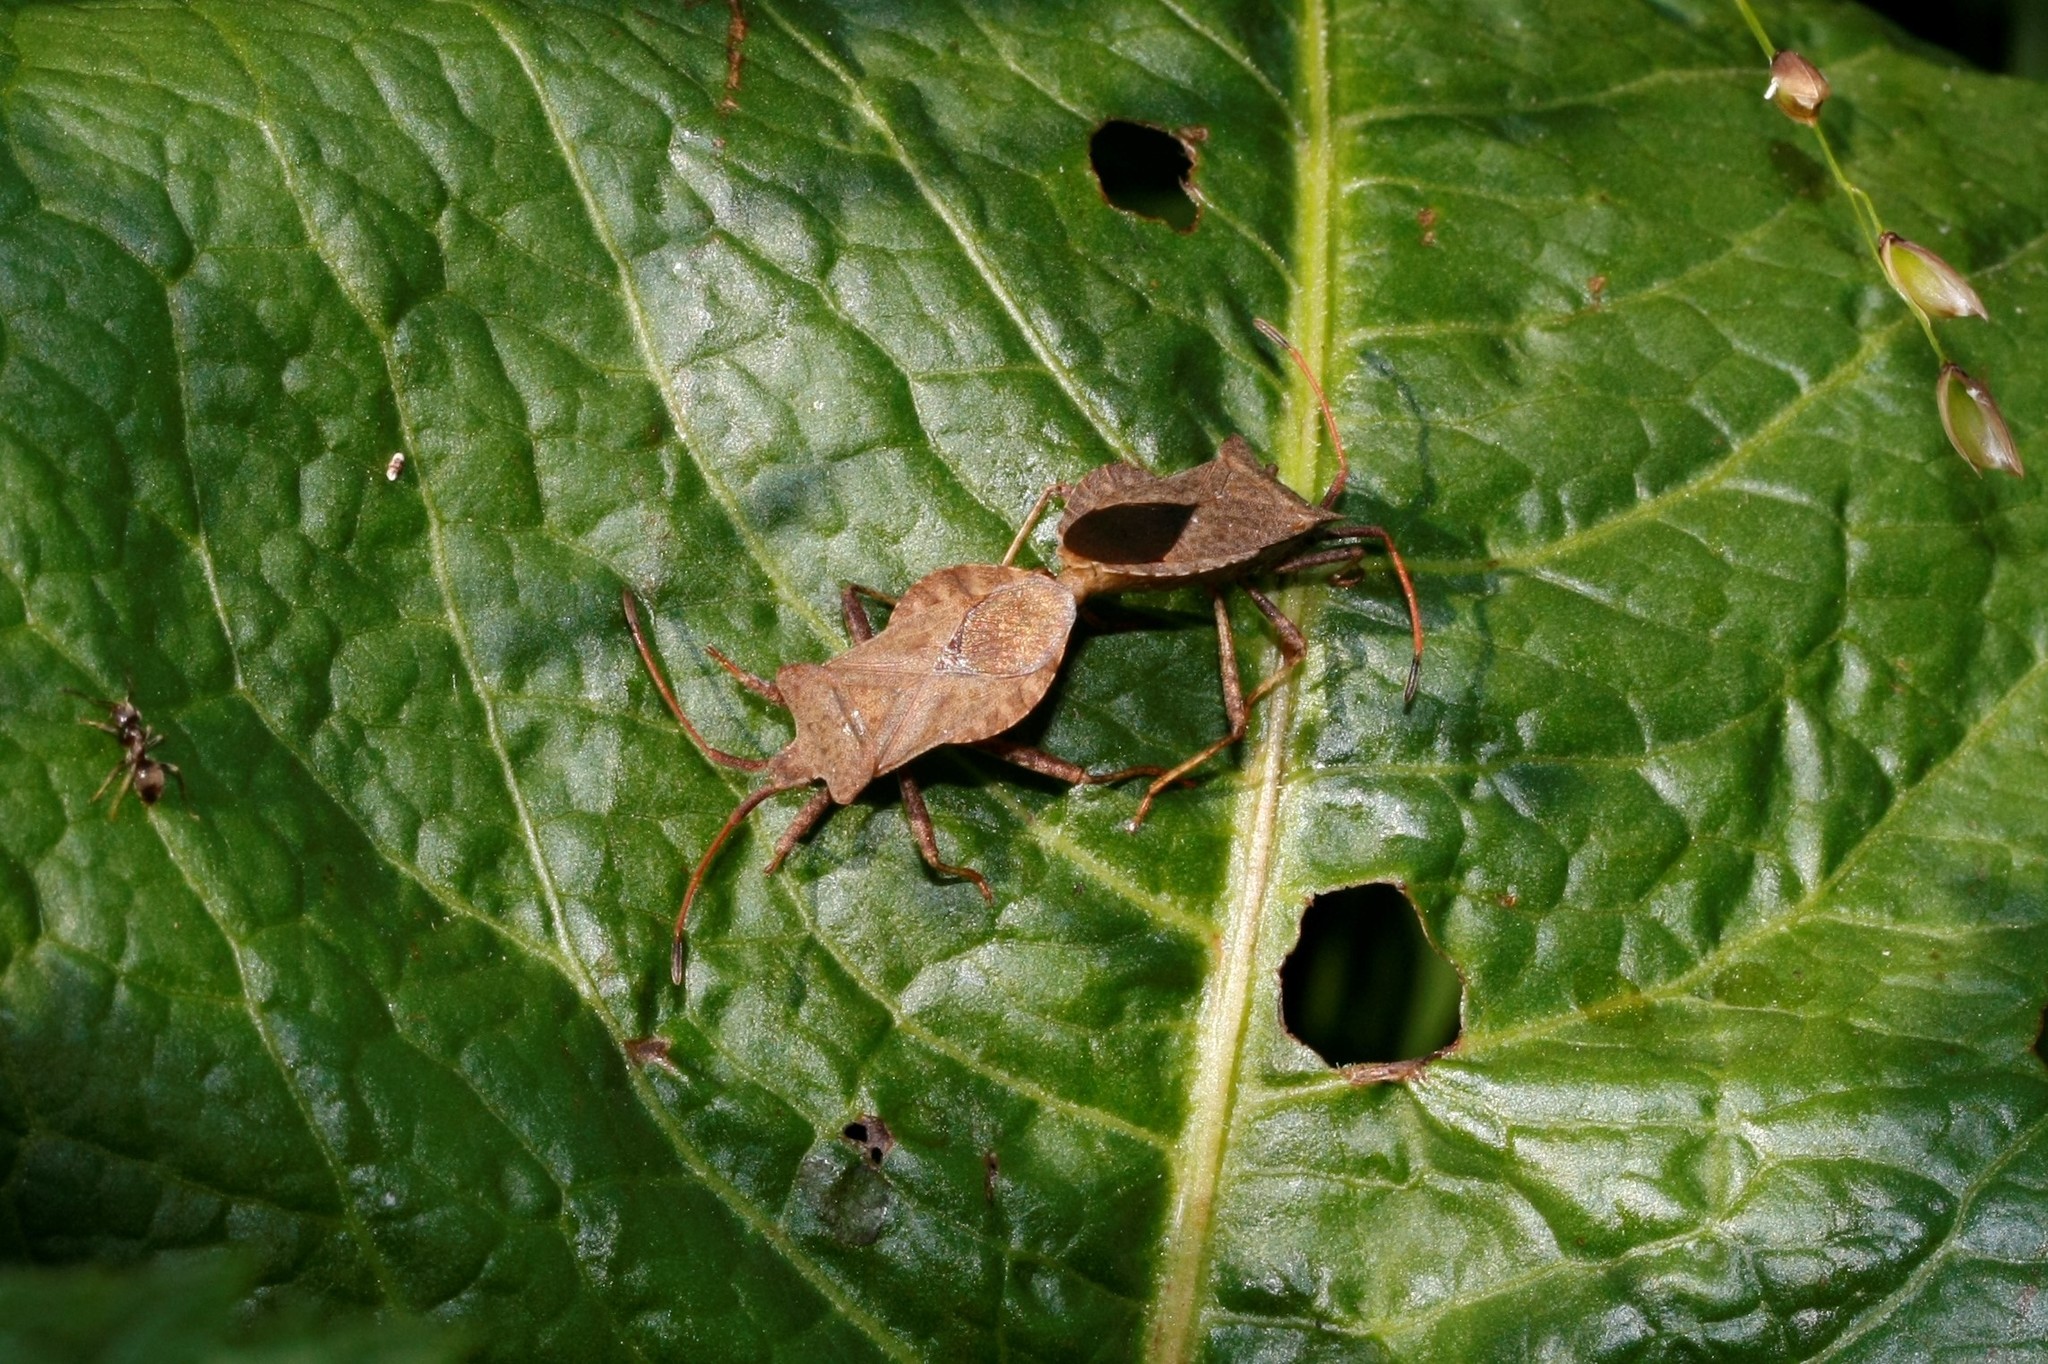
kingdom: Animalia
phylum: Arthropoda
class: Insecta
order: Hemiptera
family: Coreidae
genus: Coreus
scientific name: Coreus marginatus
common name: Dock bug
